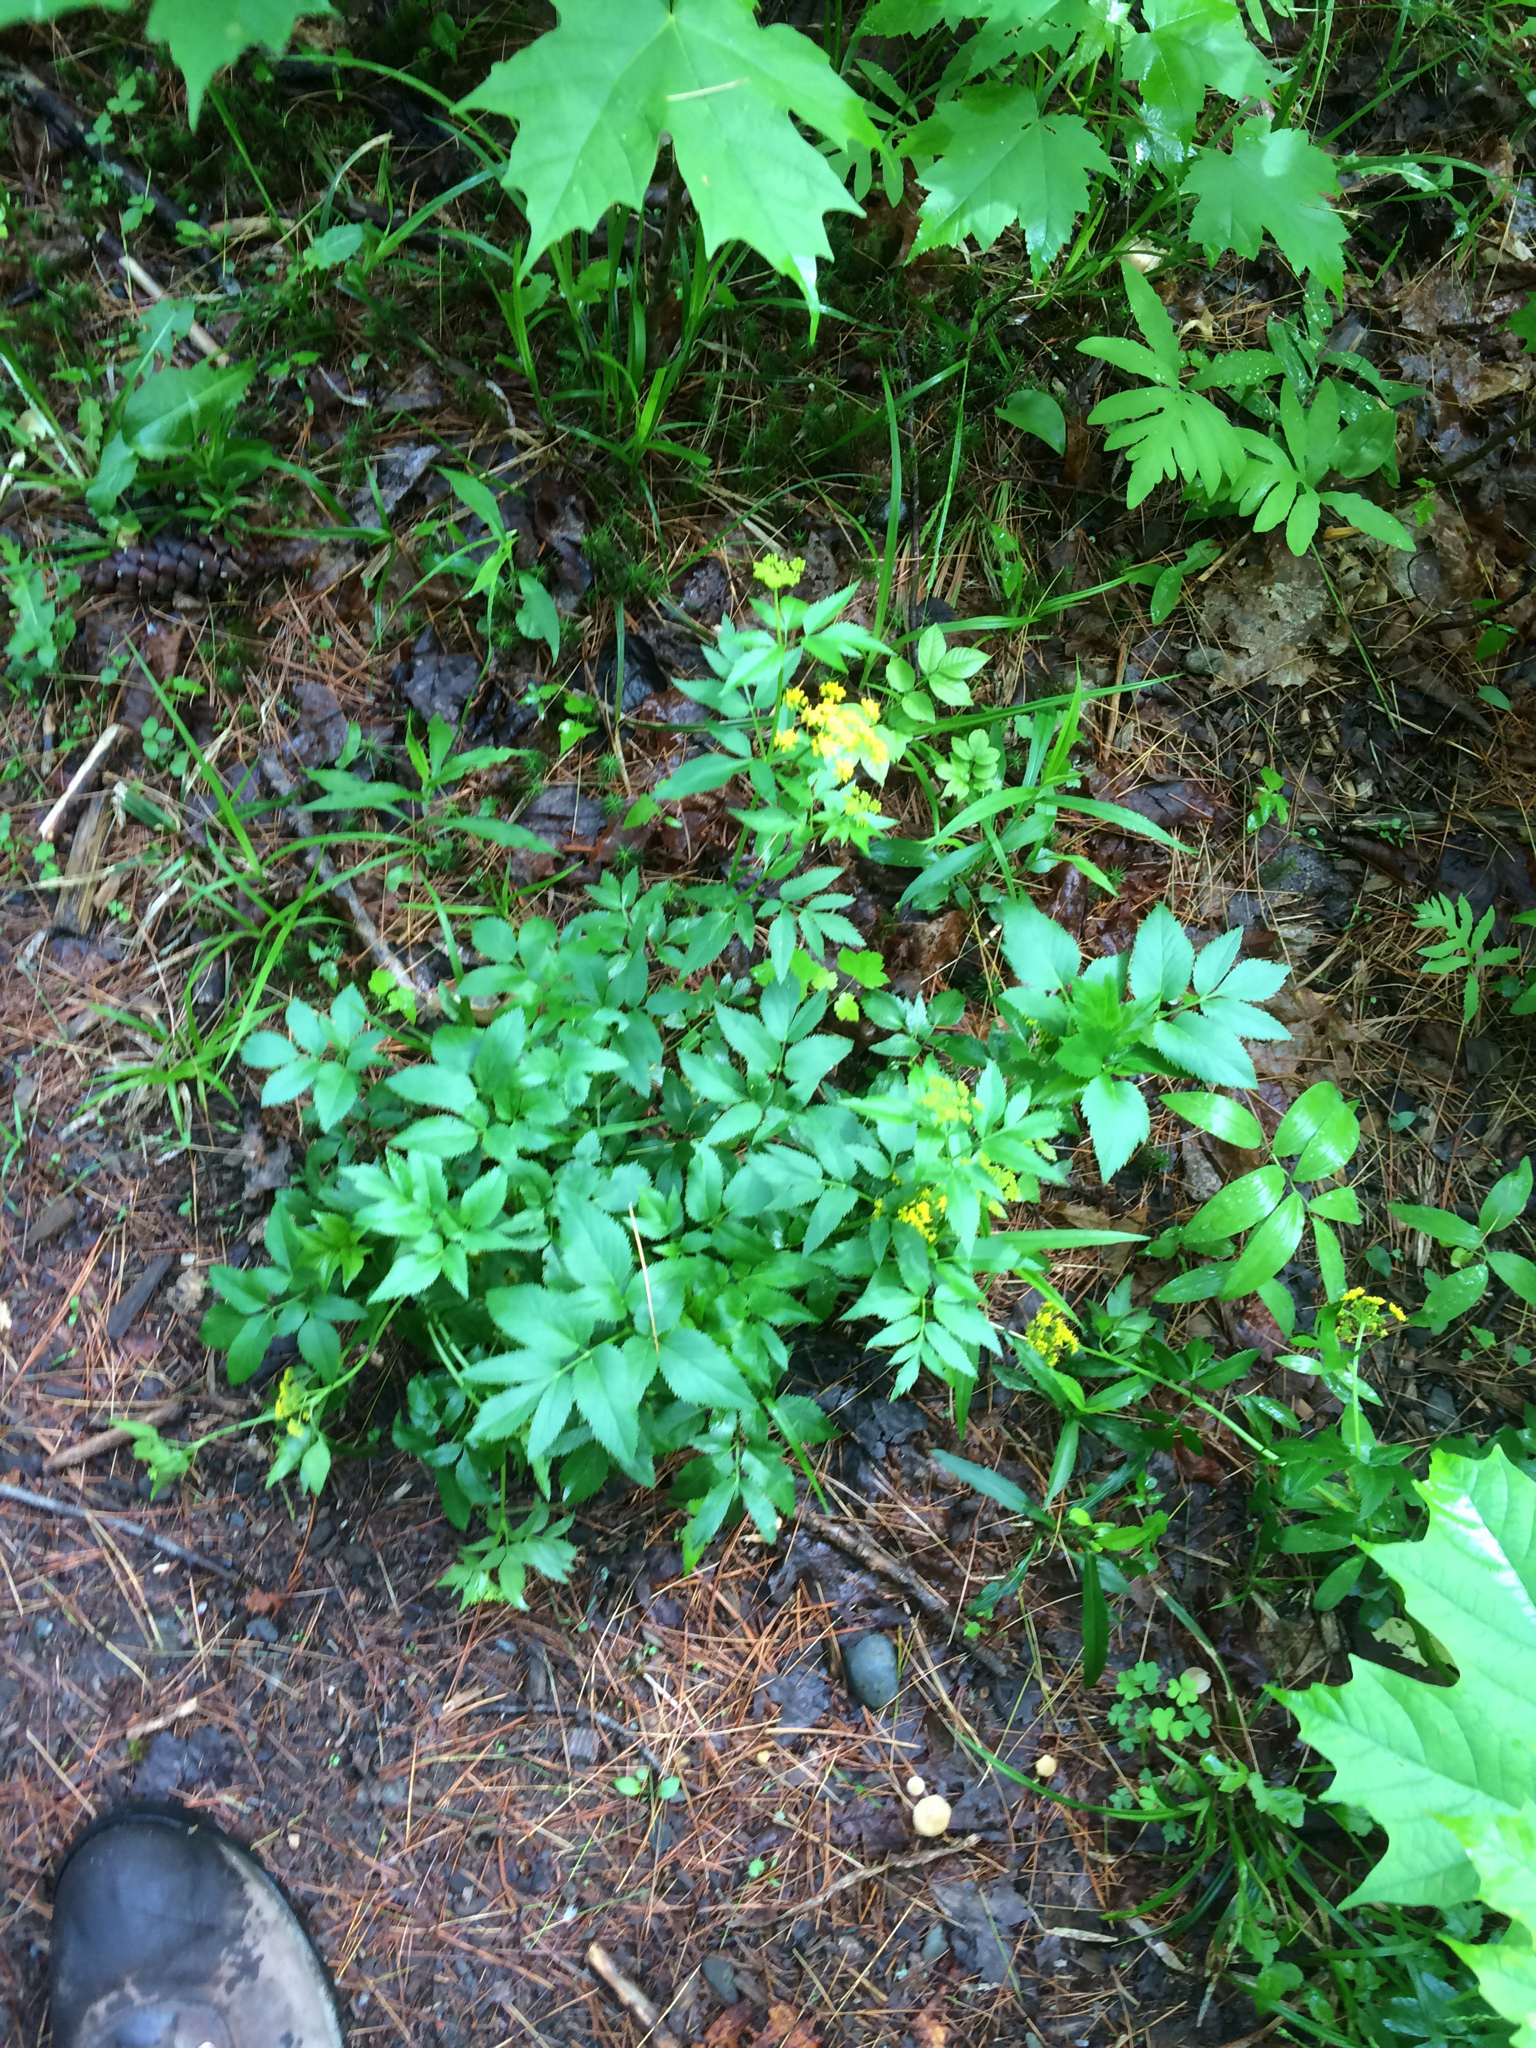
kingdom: Plantae
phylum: Tracheophyta
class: Magnoliopsida
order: Apiales
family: Apiaceae
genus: Zizia
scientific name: Zizia aurea
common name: Golden alexanders
